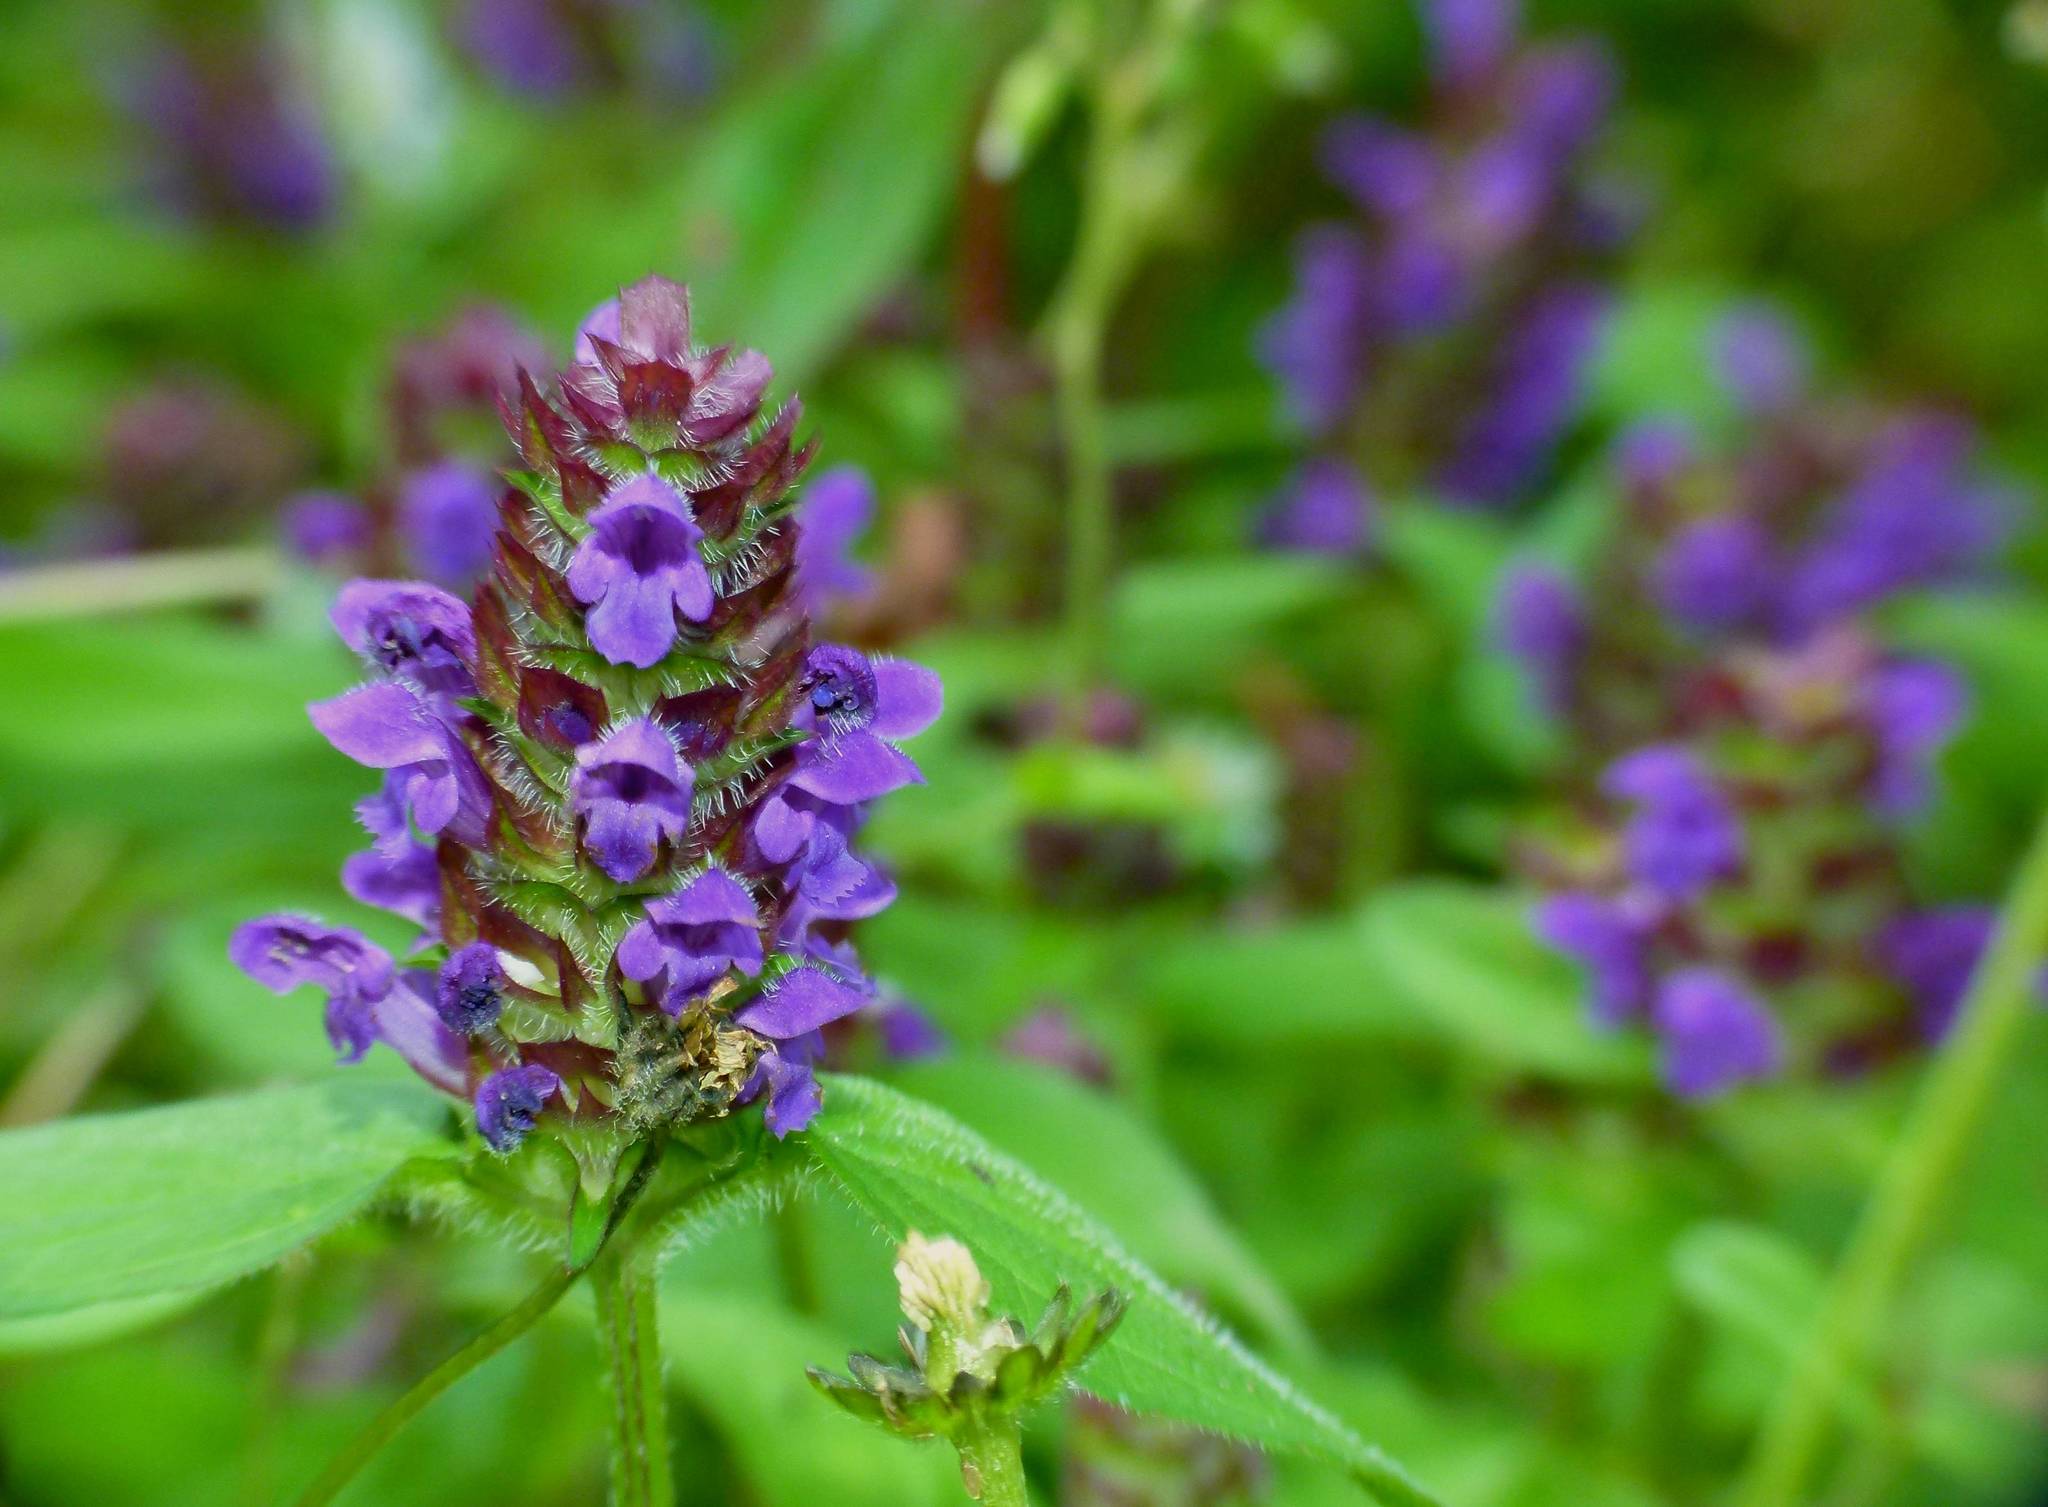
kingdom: Plantae
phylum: Tracheophyta
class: Magnoliopsida
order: Lamiales
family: Lamiaceae
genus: Prunella
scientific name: Prunella vulgaris
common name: Heal-all
